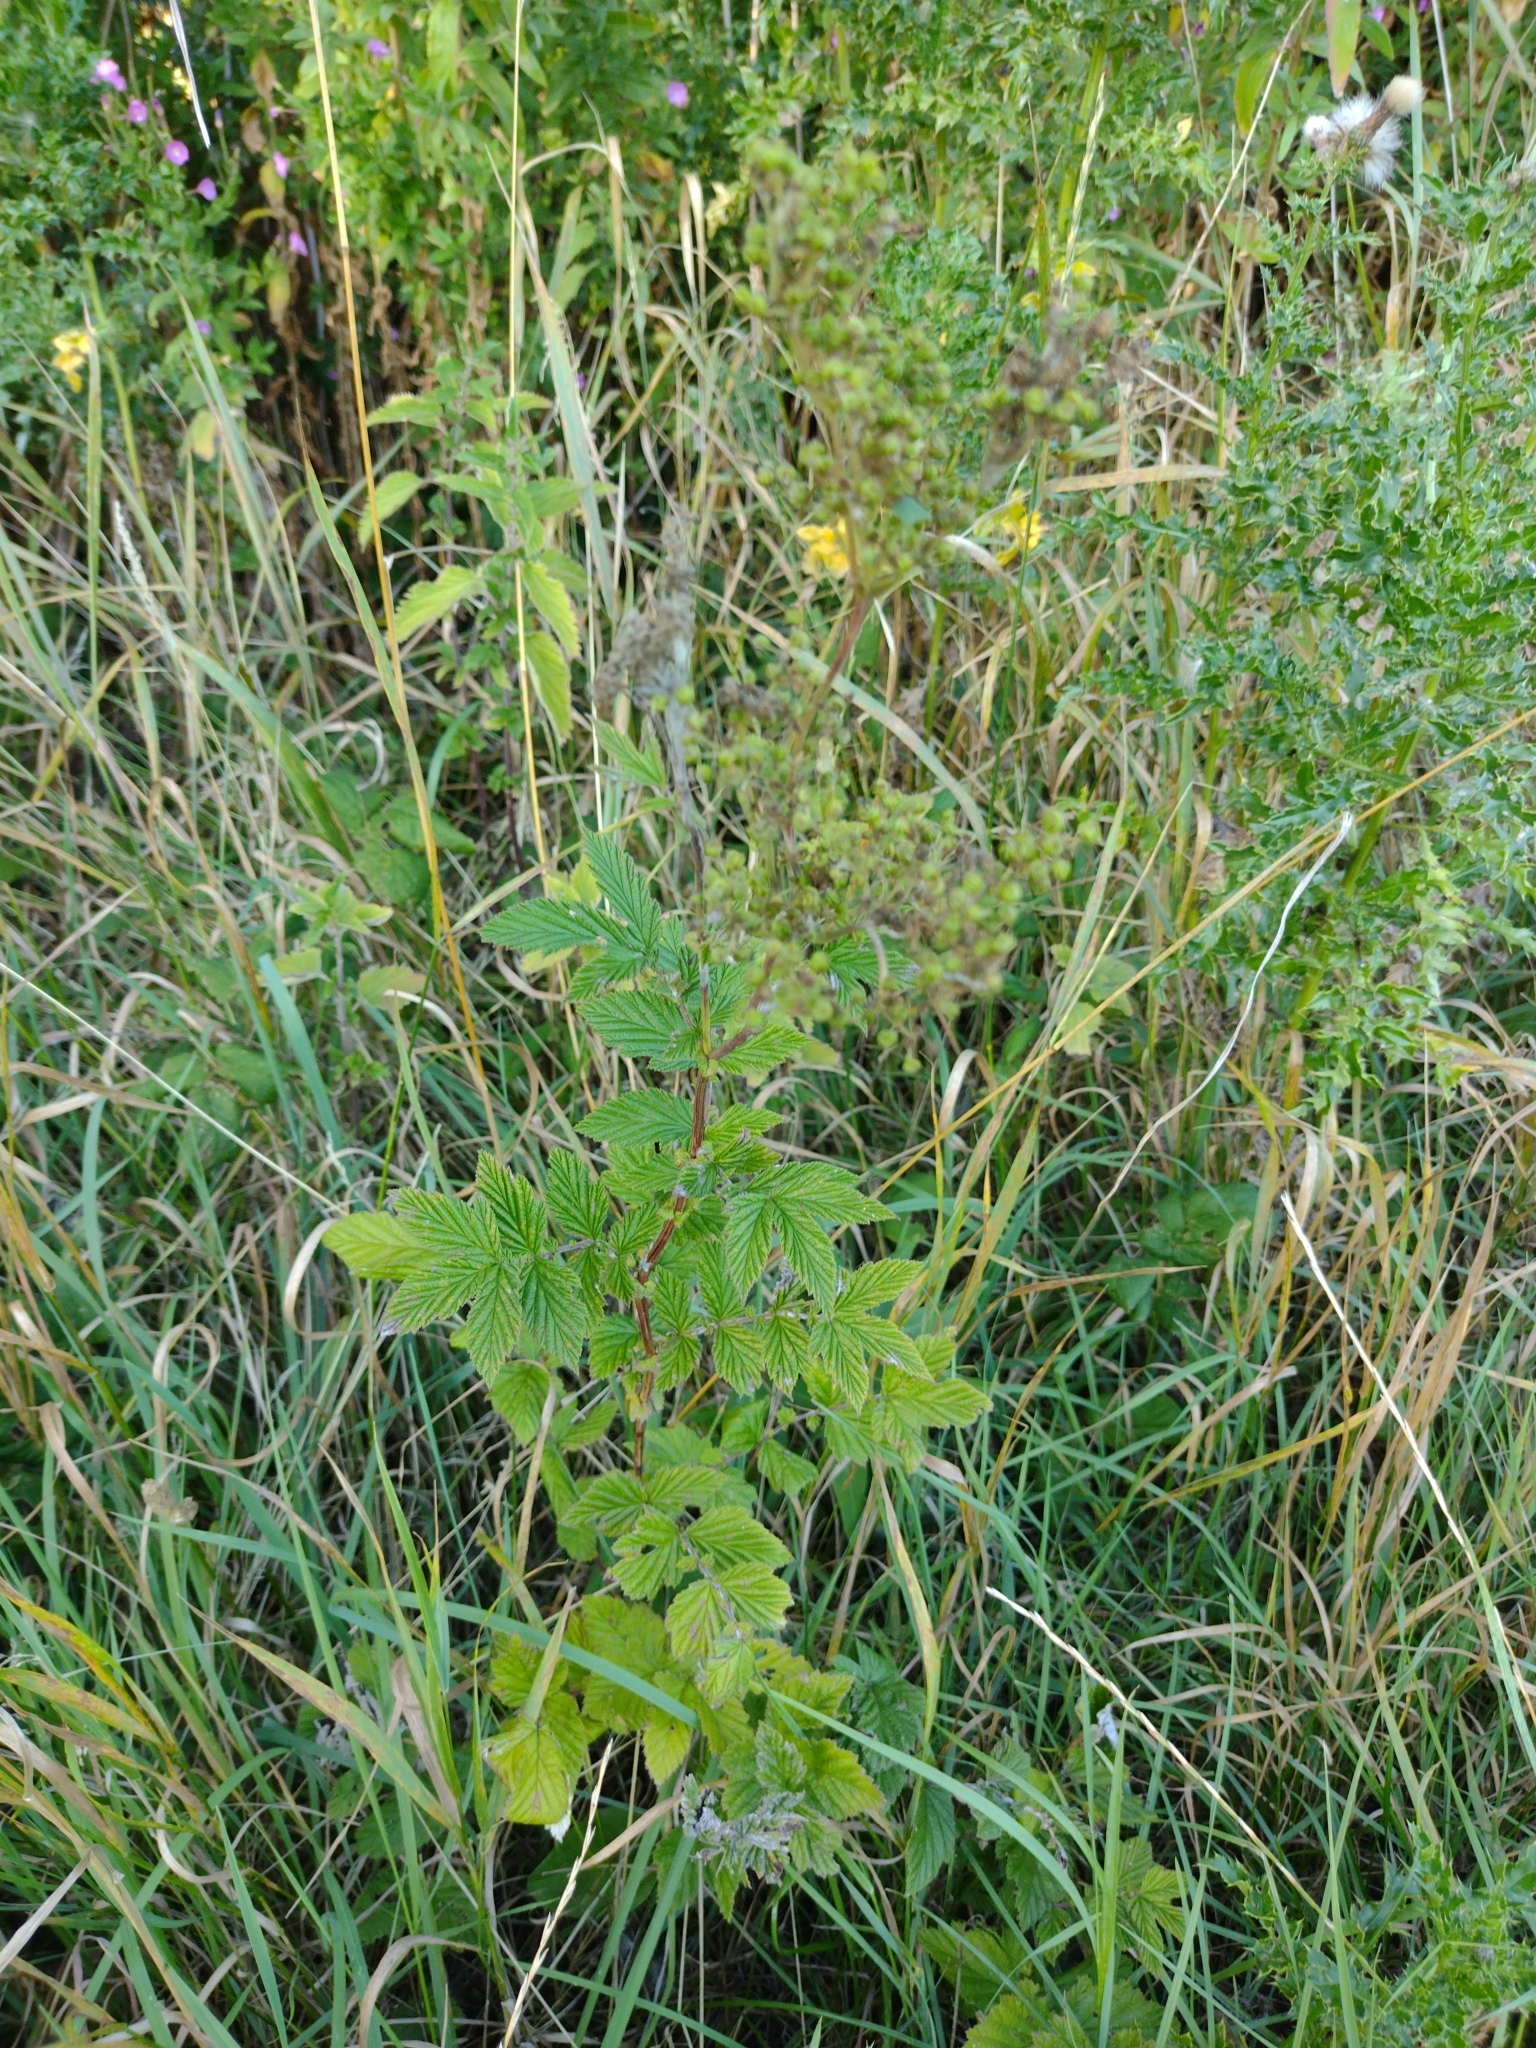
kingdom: Plantae
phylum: Tracheophyta
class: Magnoliopsida
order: Rosales
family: Rosaceae
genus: Filipendula
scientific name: Filipendula ulmaria
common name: Meadowsweet
